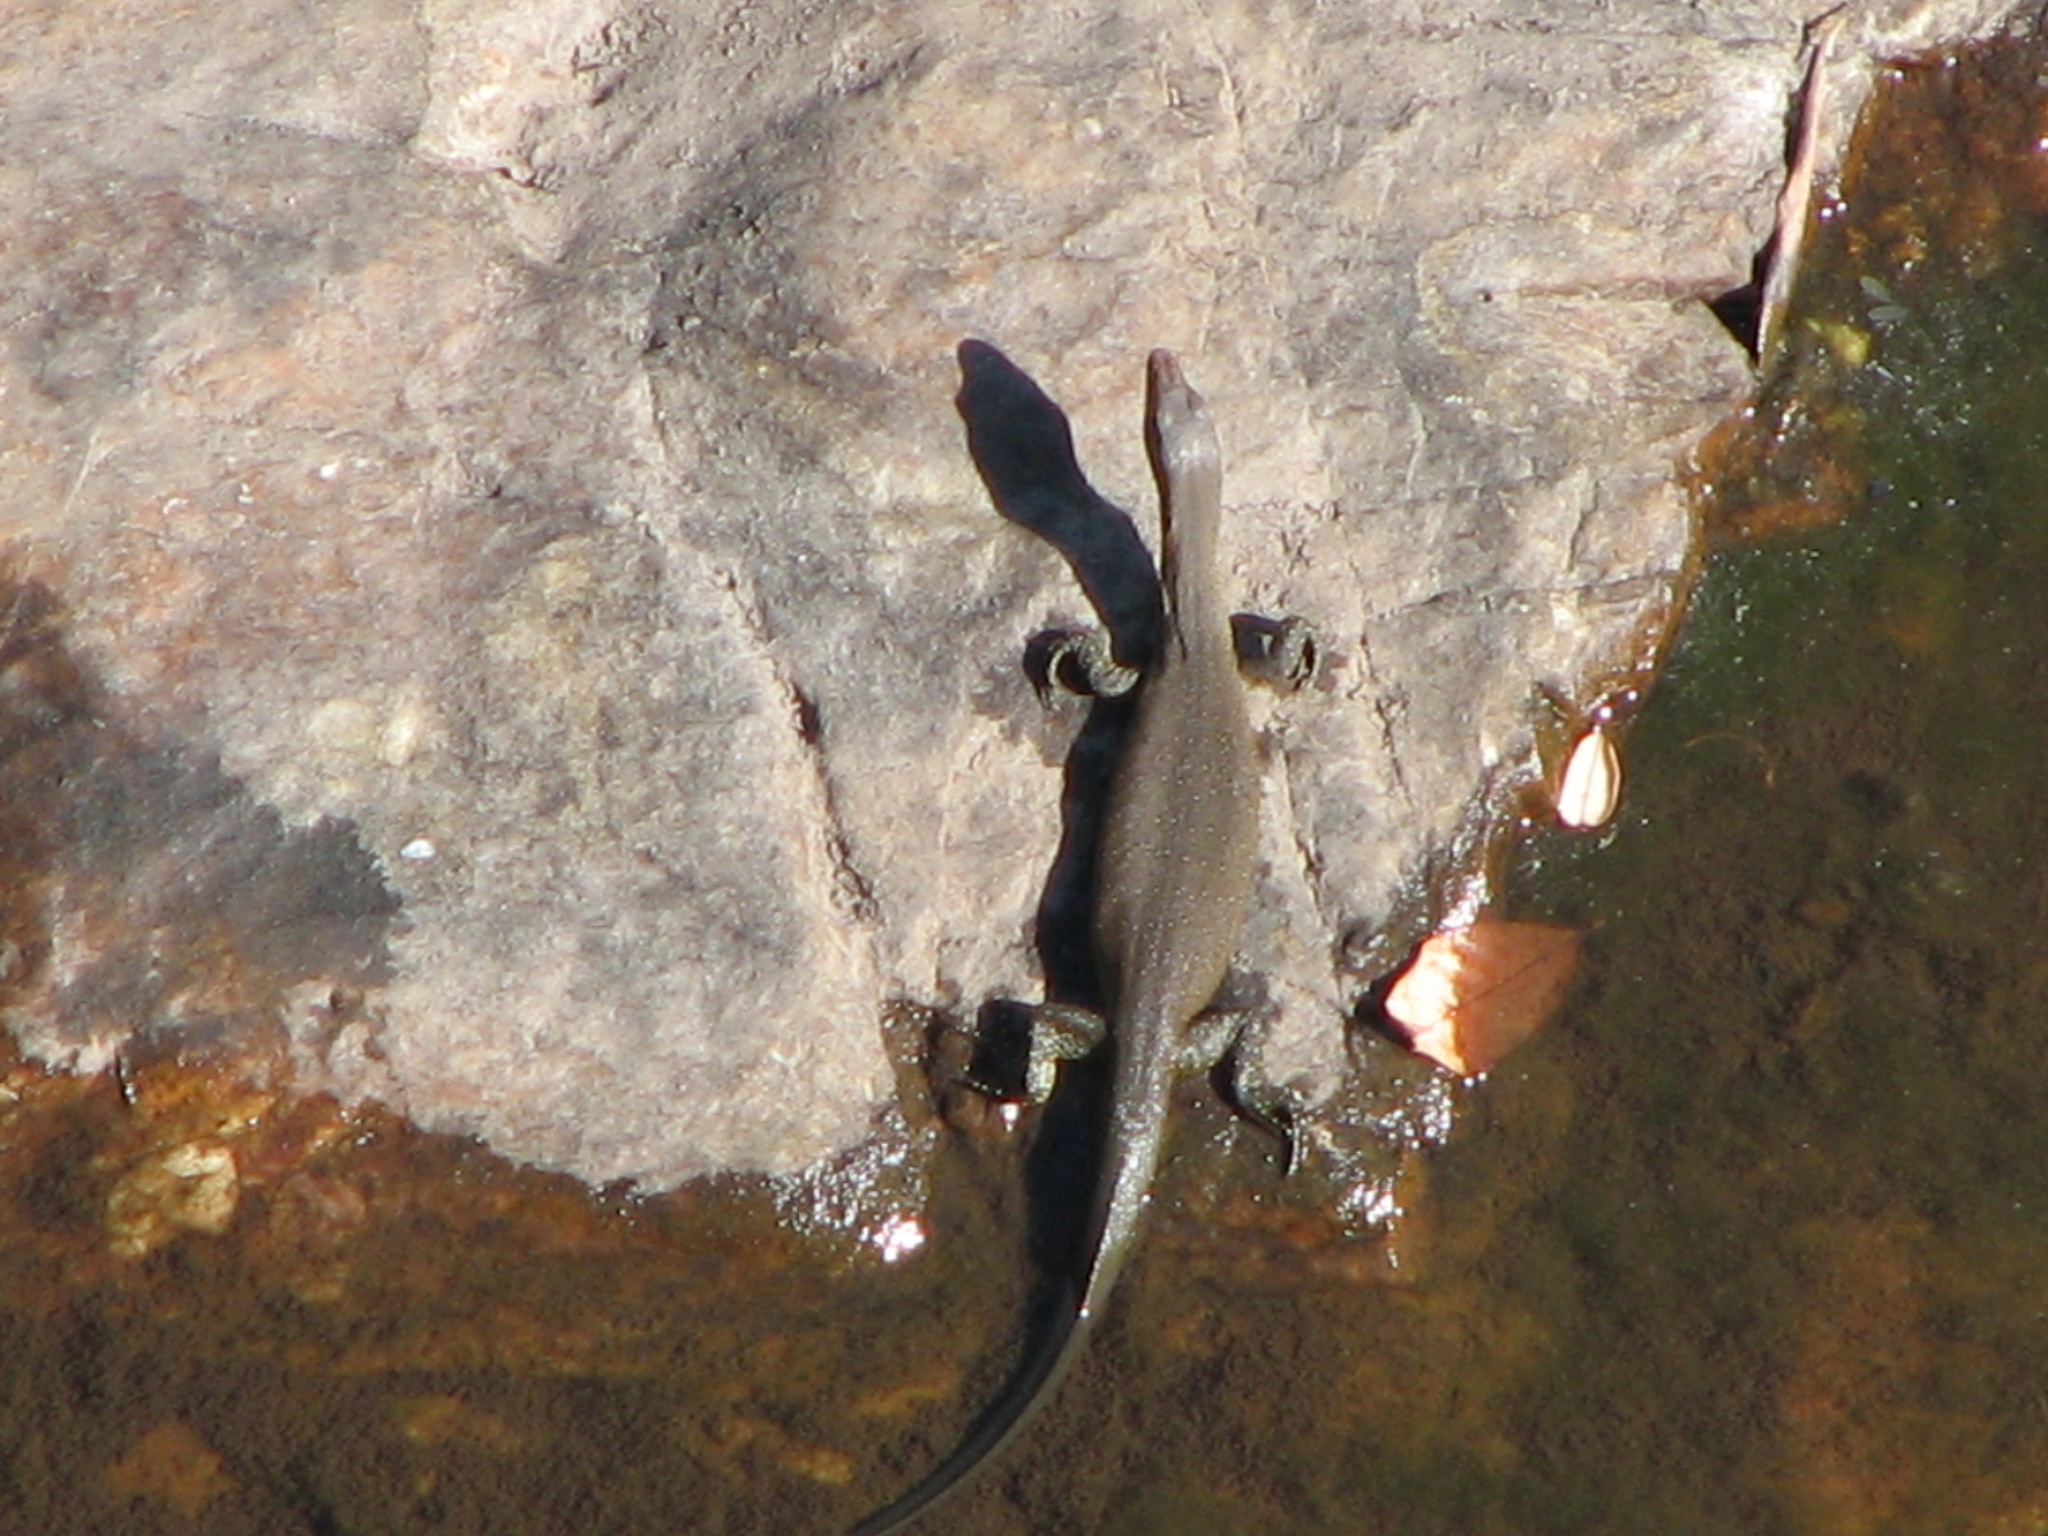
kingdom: Animalia
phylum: Chordata
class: Squamata
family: Varanidae
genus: Varanus
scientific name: Varanus mertensi
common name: Mertens's water monitor
